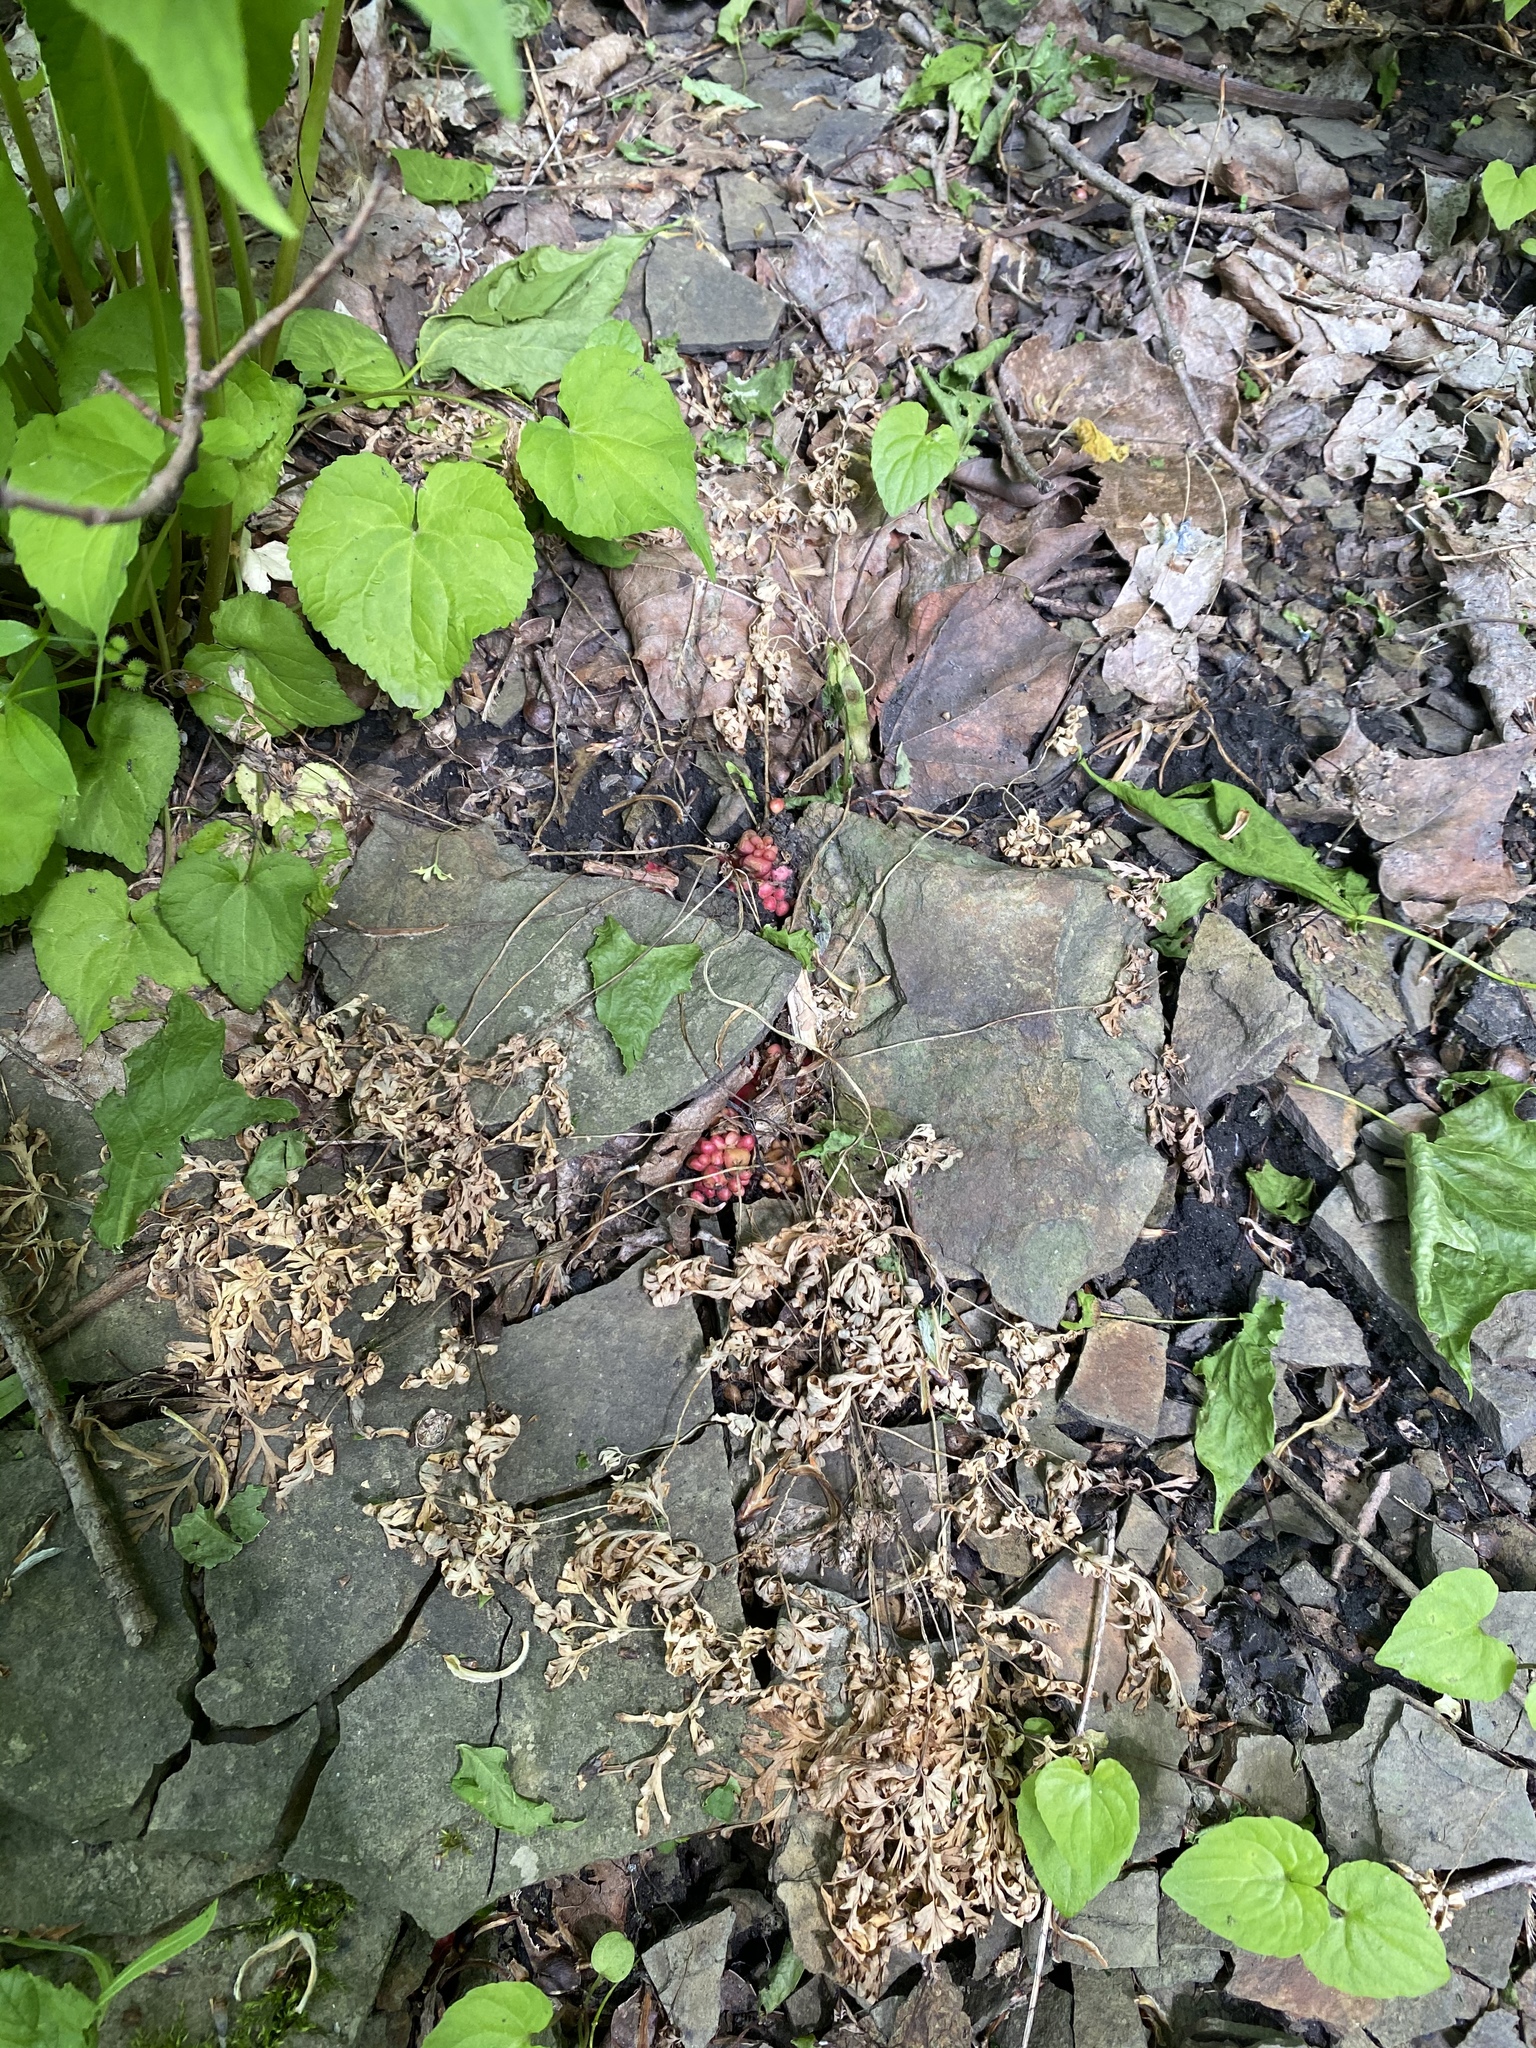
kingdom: Plantae
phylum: Tracheophyta
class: Magnoliopsida
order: Ranunculales
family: Papaveraceae
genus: Dicentra
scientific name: Dicentra cucullaria
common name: Dutchman's breeches
